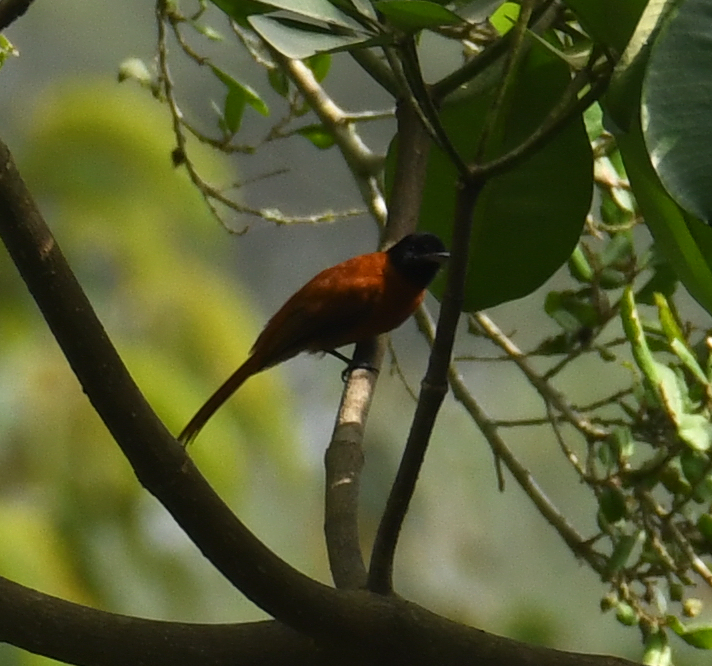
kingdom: Animalia
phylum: Chordata
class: Aves
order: Passeriformes
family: Monarchidae
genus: Terpsiphone
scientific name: Terpsiphone rufiventer
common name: Red-bellied paradise flycatcher
